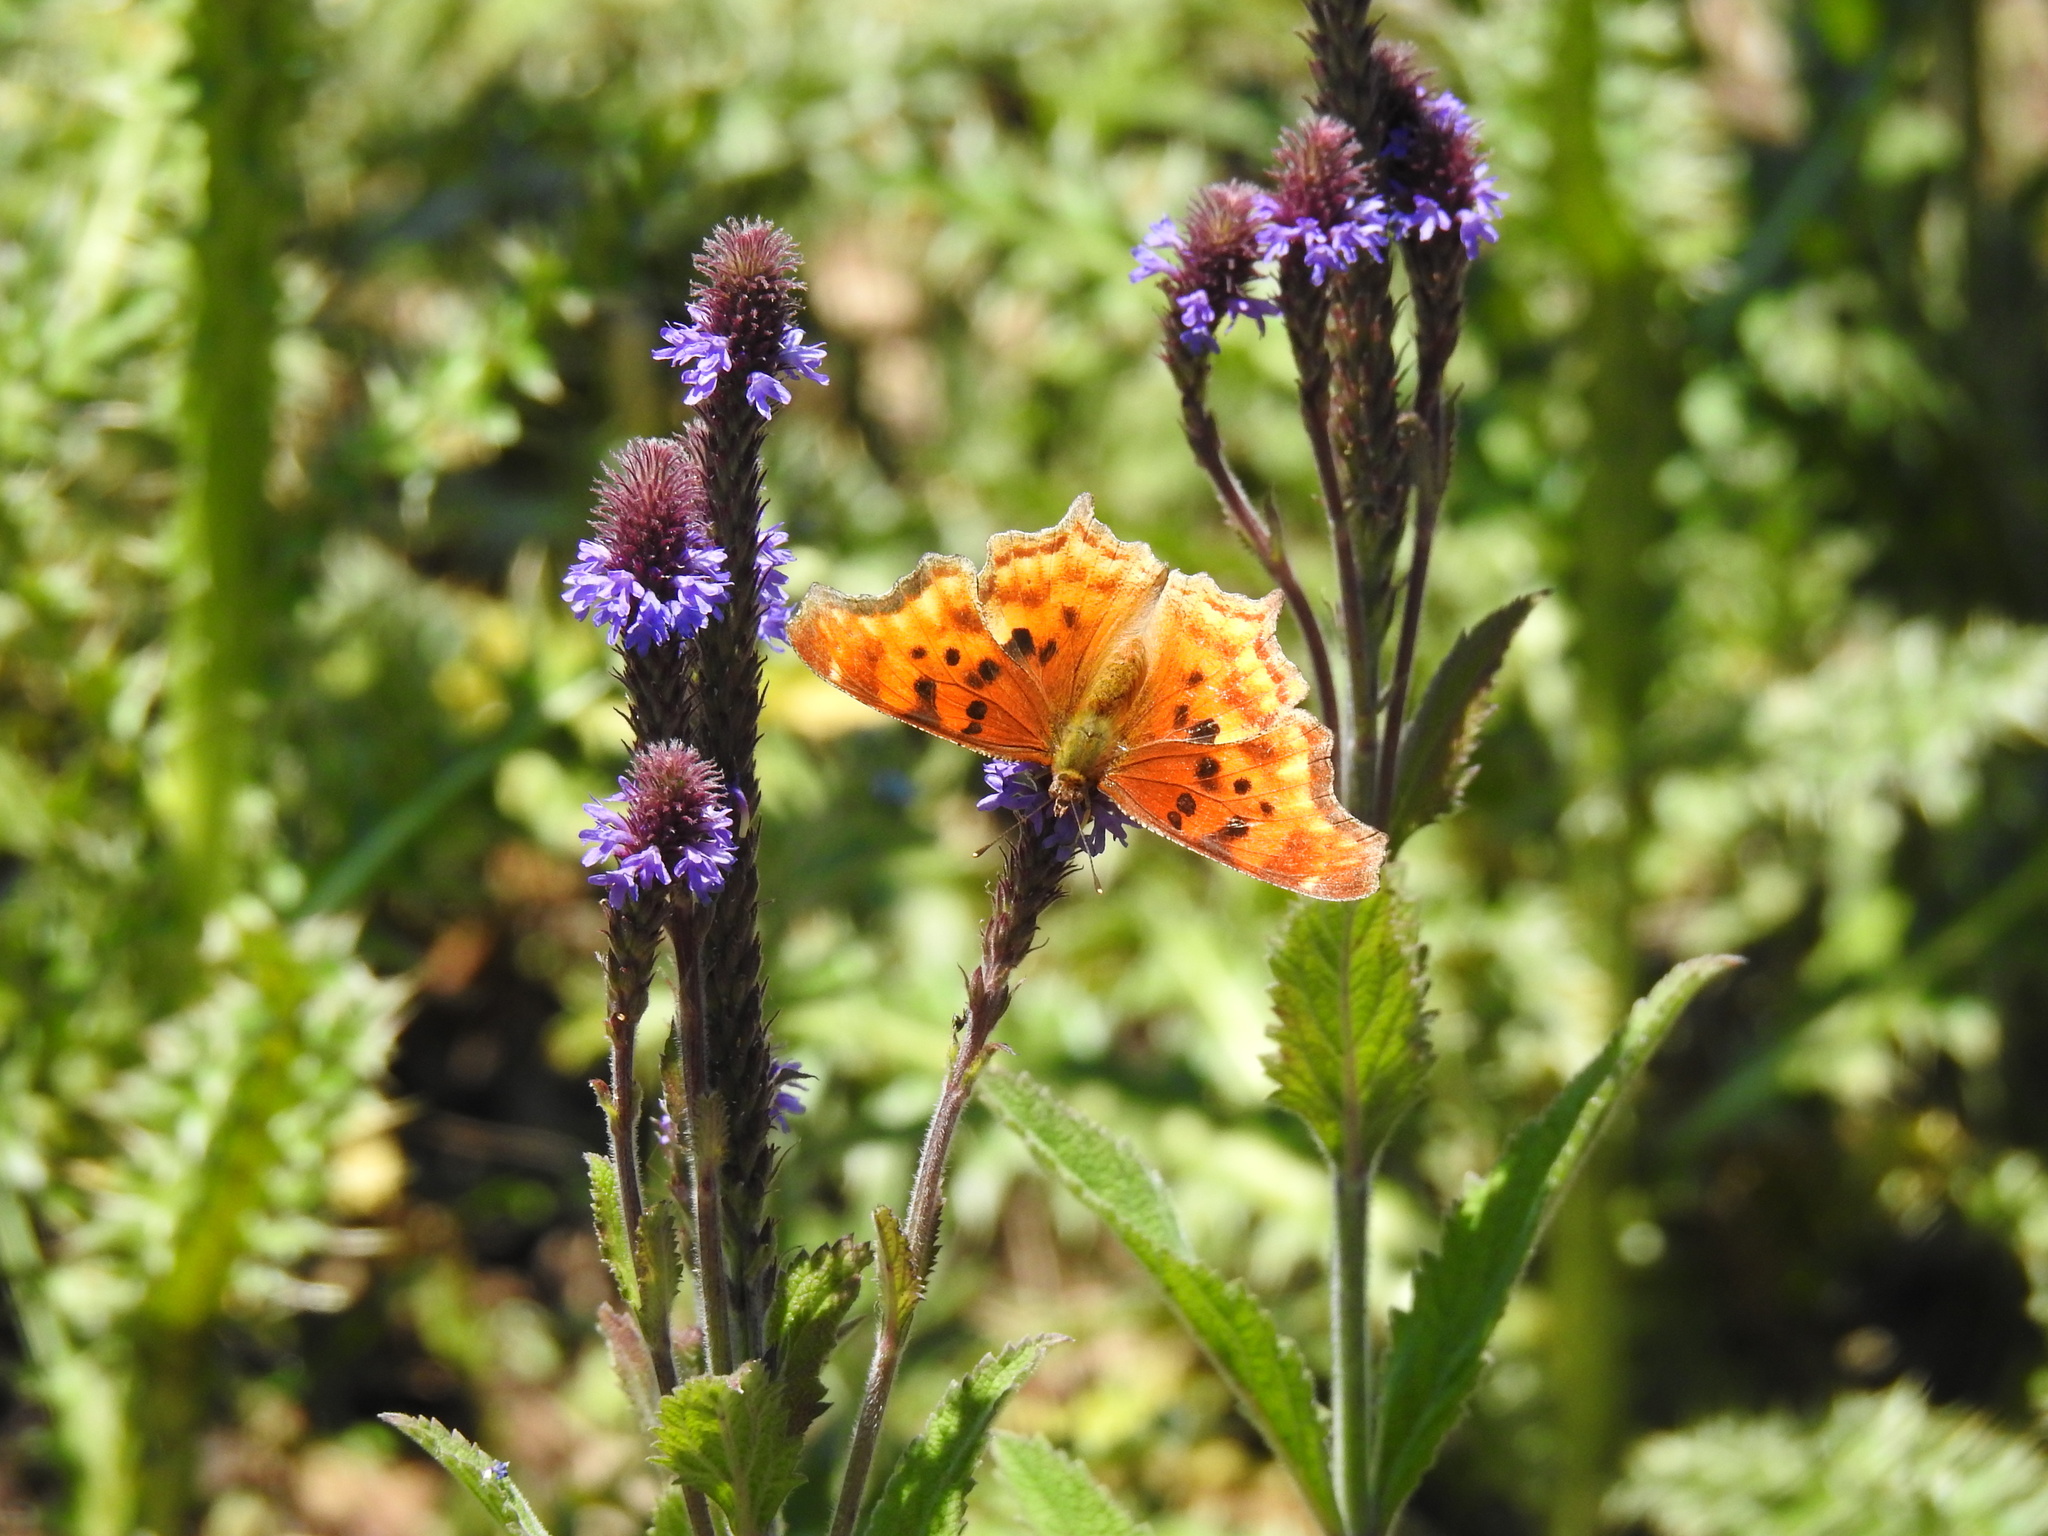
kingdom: Animalia
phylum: Arthropoda
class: Insecta
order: Lepidoptera
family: Nymphalidae
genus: Polygonia
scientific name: Polygonia satyrus
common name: Satyr angle wing
